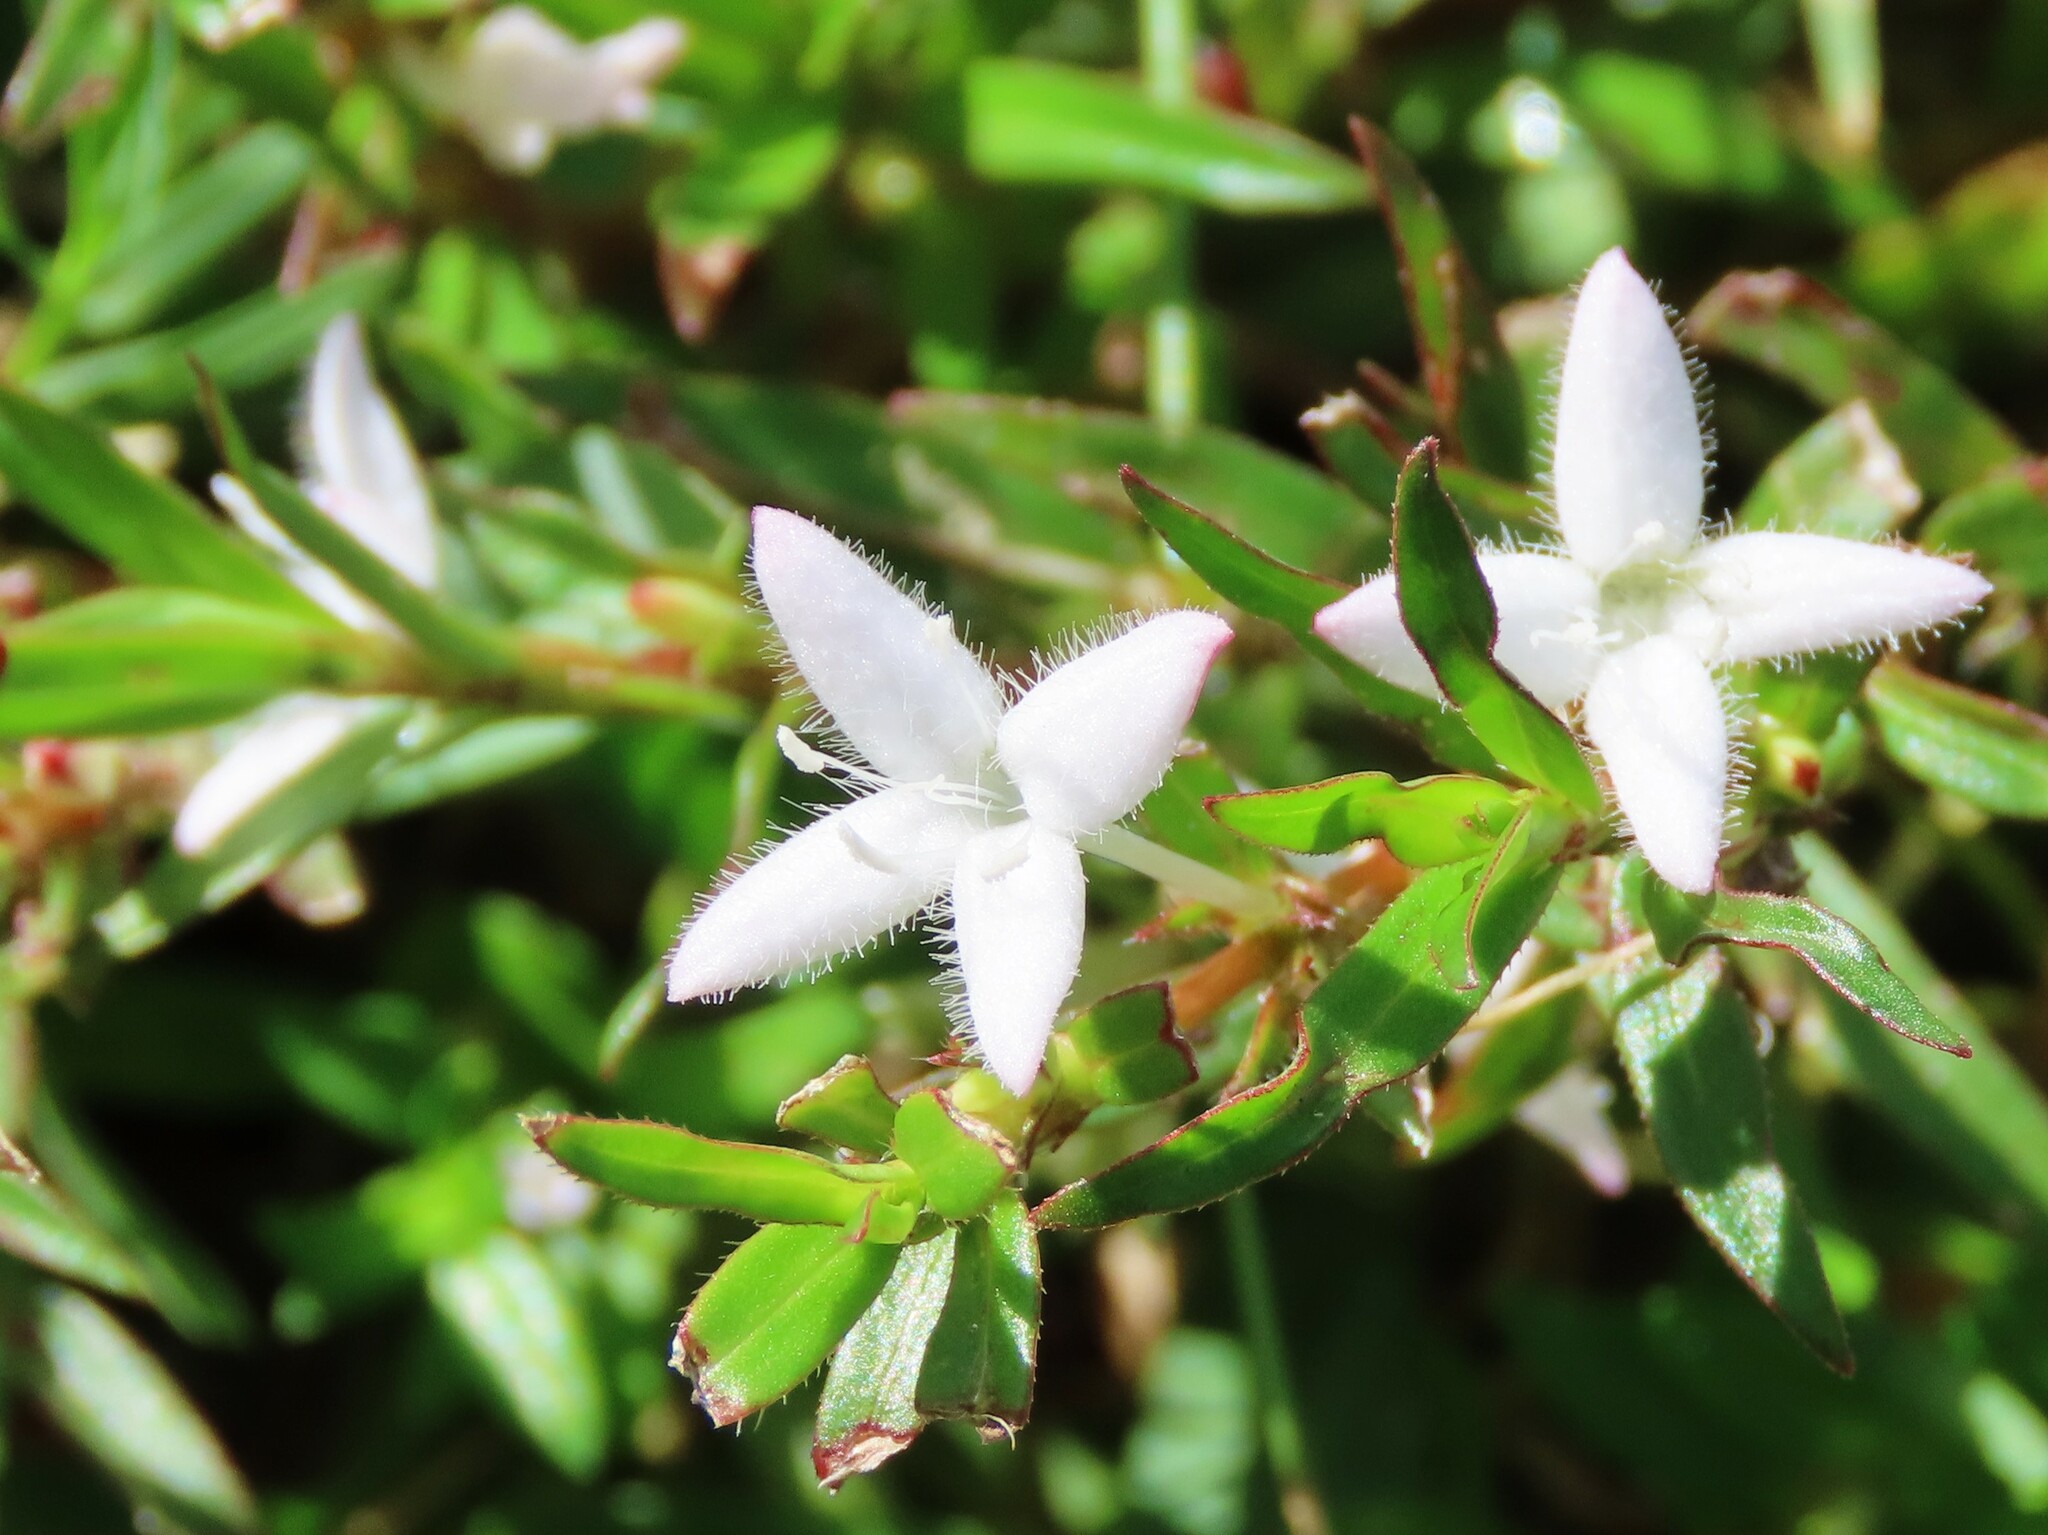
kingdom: Plantae
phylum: Tracheophyta
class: Magnoliopsida
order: Gentianales
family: Rubiaceae
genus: Diodia
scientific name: Diodia virginiana
